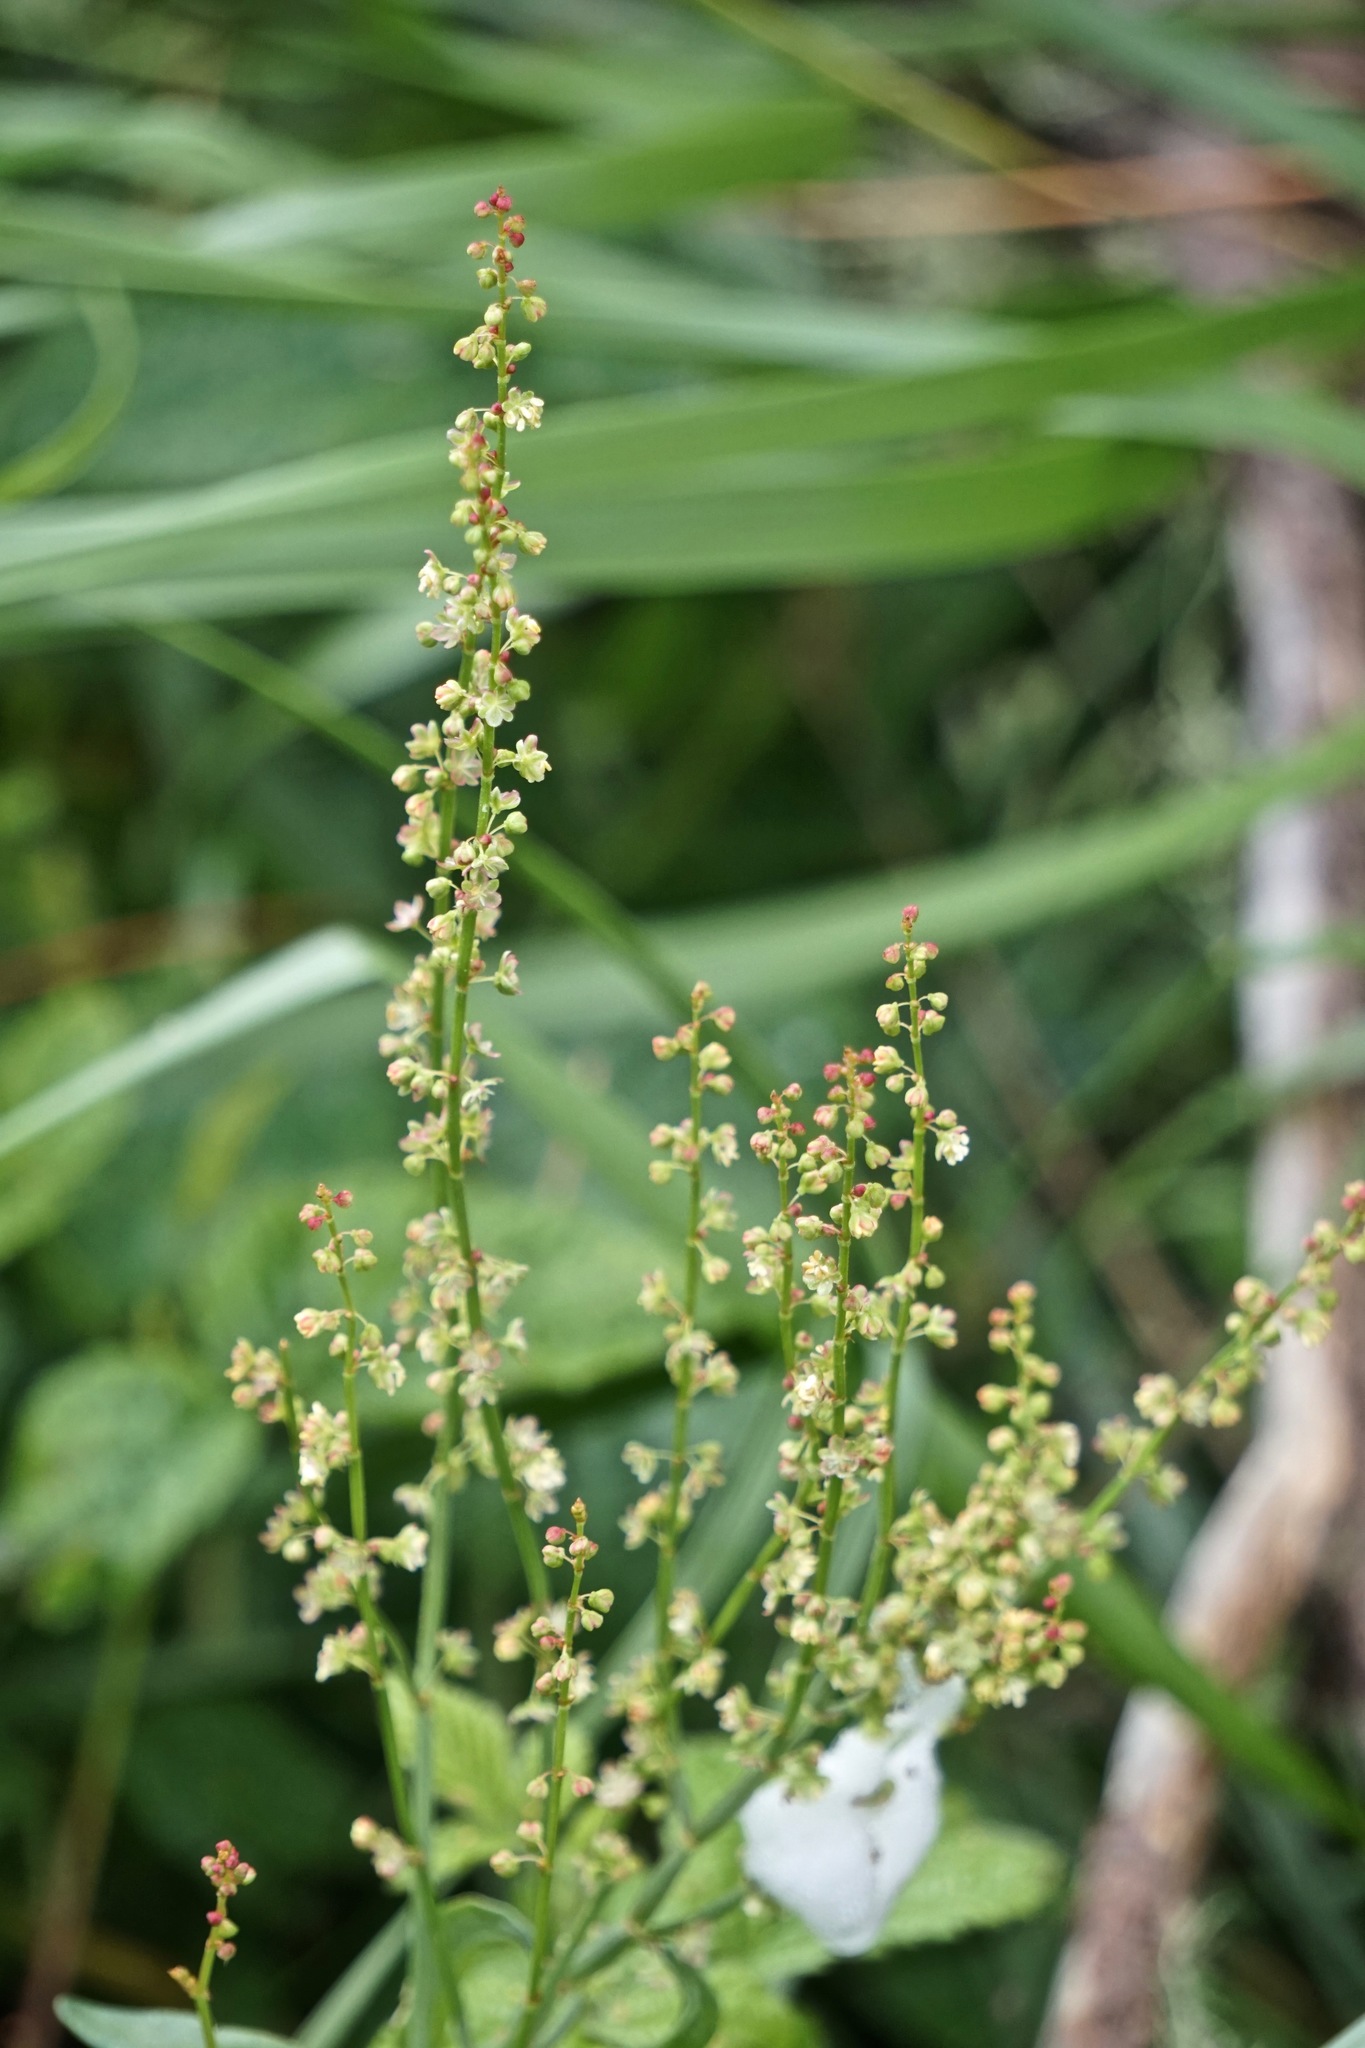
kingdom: Plantae
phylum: Tracheophyta
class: Magnoliopsida
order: Caryophyllales
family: Polygonaceae
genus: Rumex
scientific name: Rumex acetosella
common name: Common sheep sorrel
